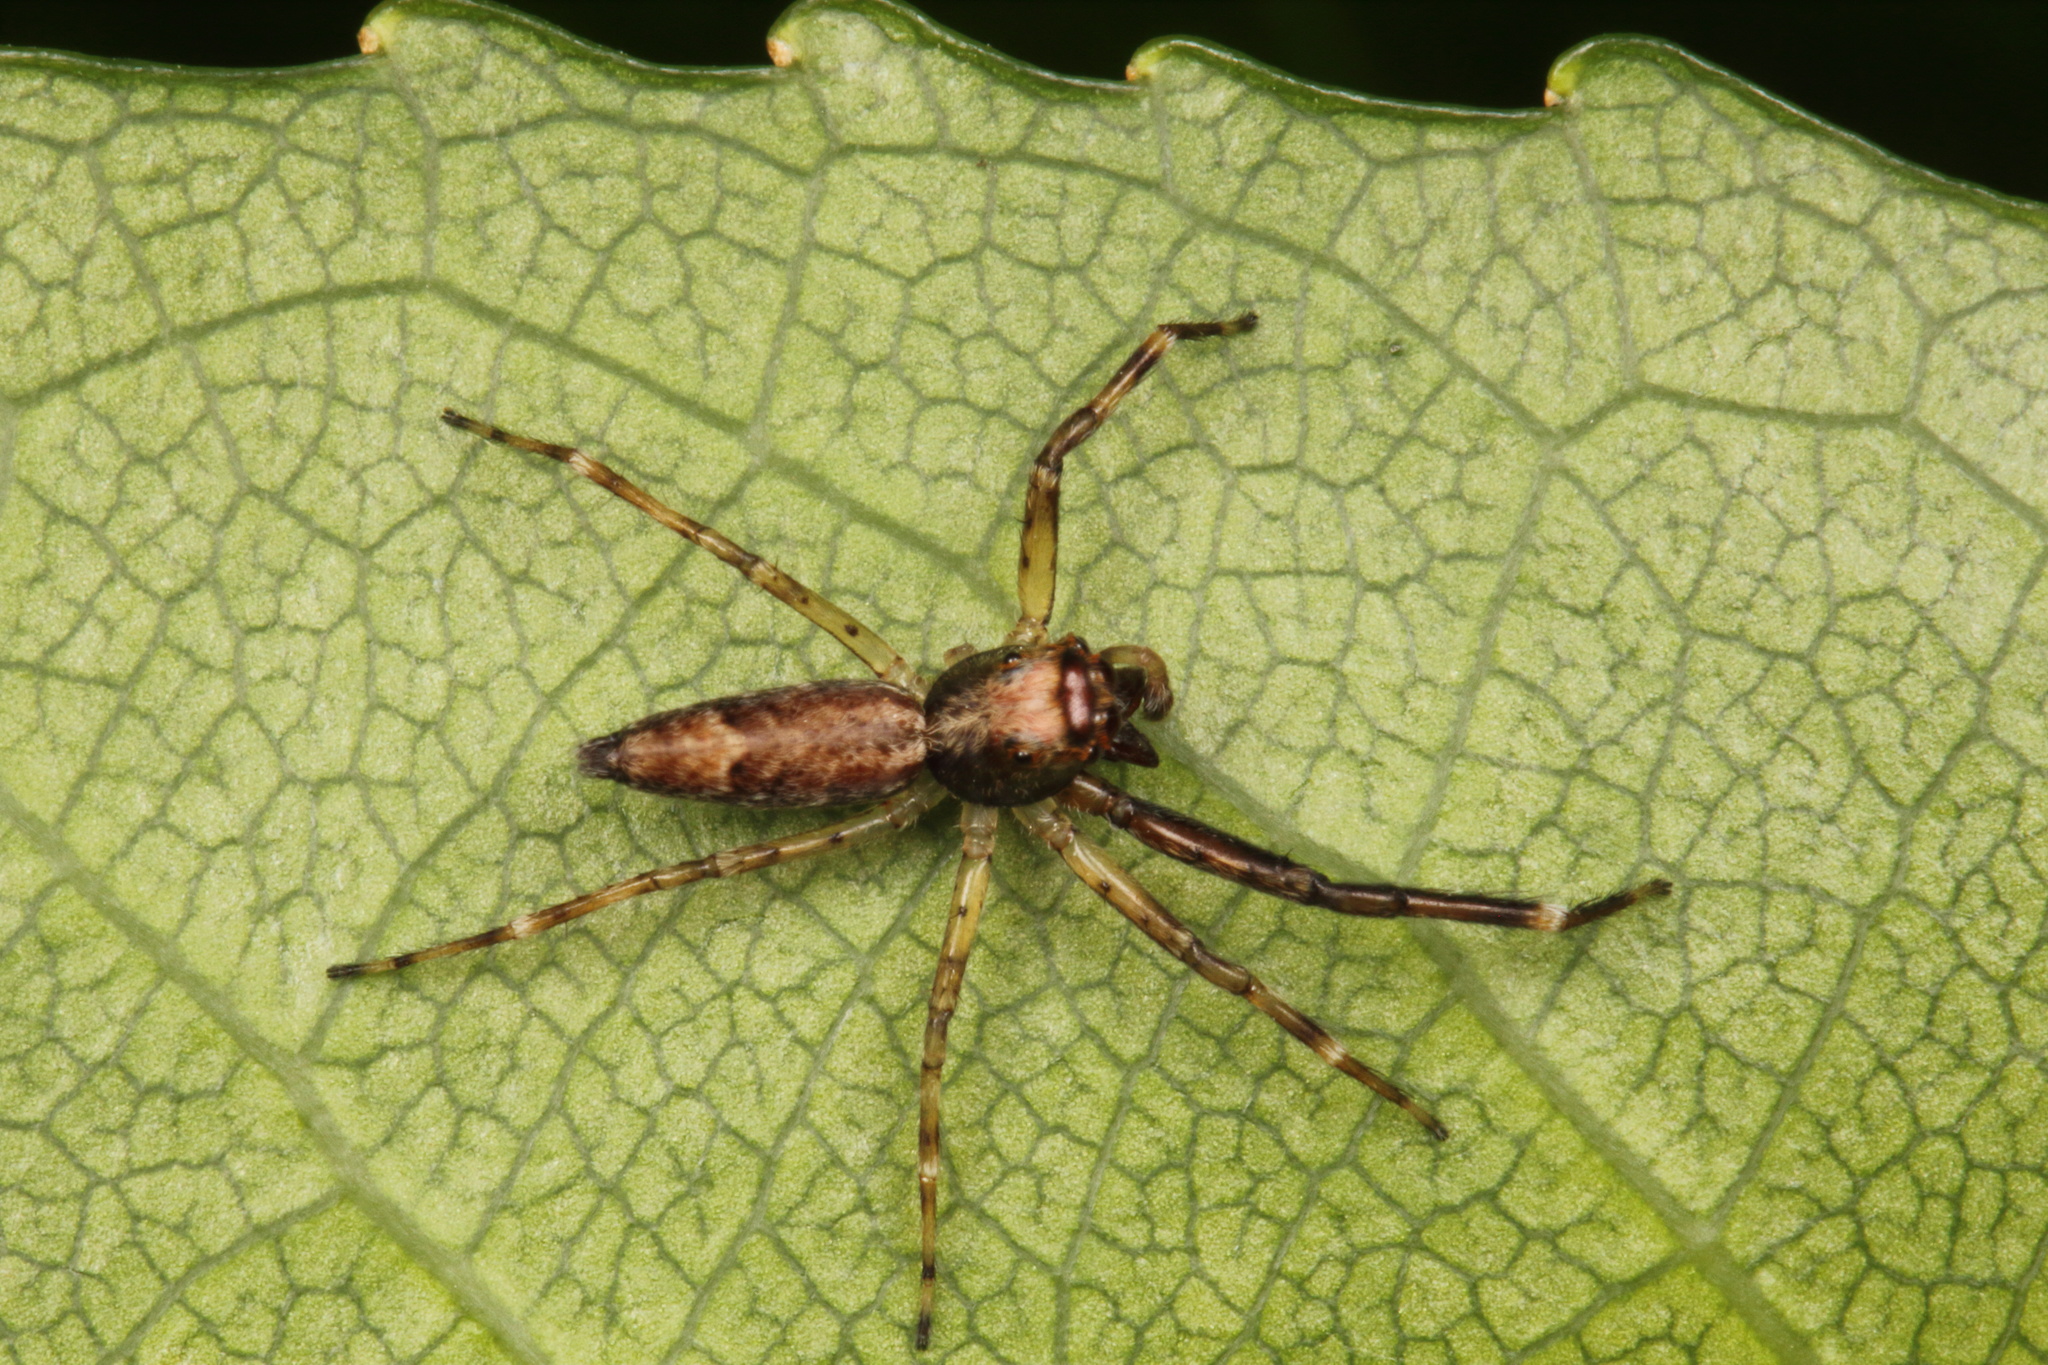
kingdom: Animalia
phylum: Arthropoda
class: Arachnida
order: Araneae
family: Salticidae
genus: Helpis
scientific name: Helpis minitabunda
